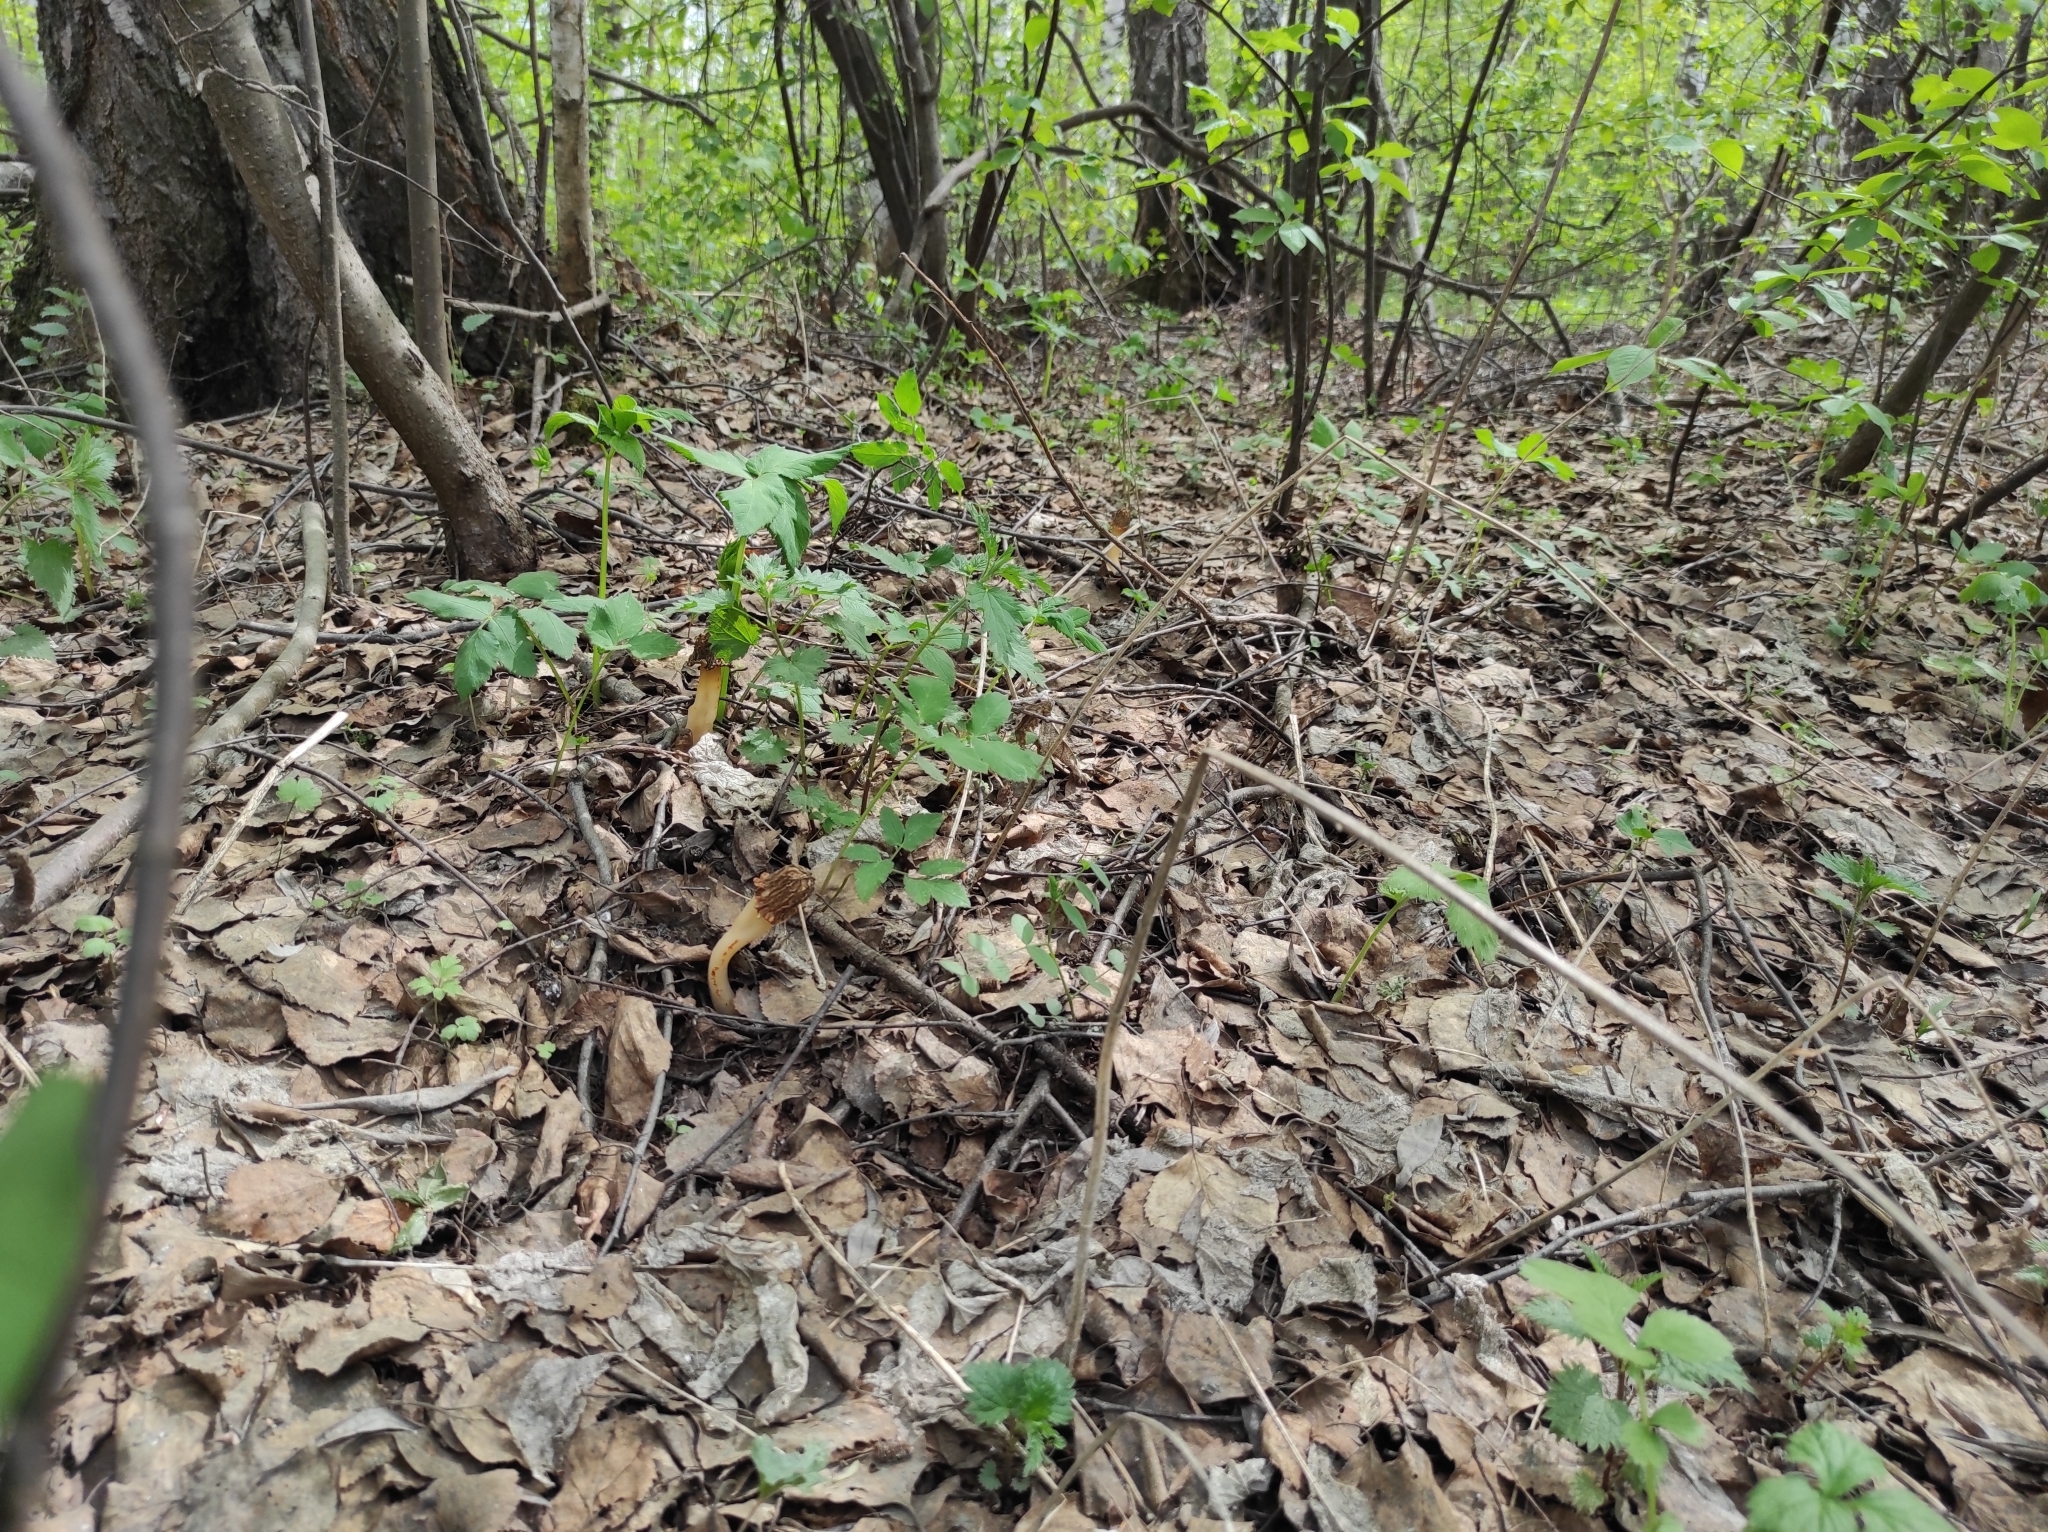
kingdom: Fungi
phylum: Ascomycota
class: Pezizomycetes
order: Pezizales
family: Morchellaceae
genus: Verpa
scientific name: Verpa bohemica
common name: Wrinkled thimble morel
